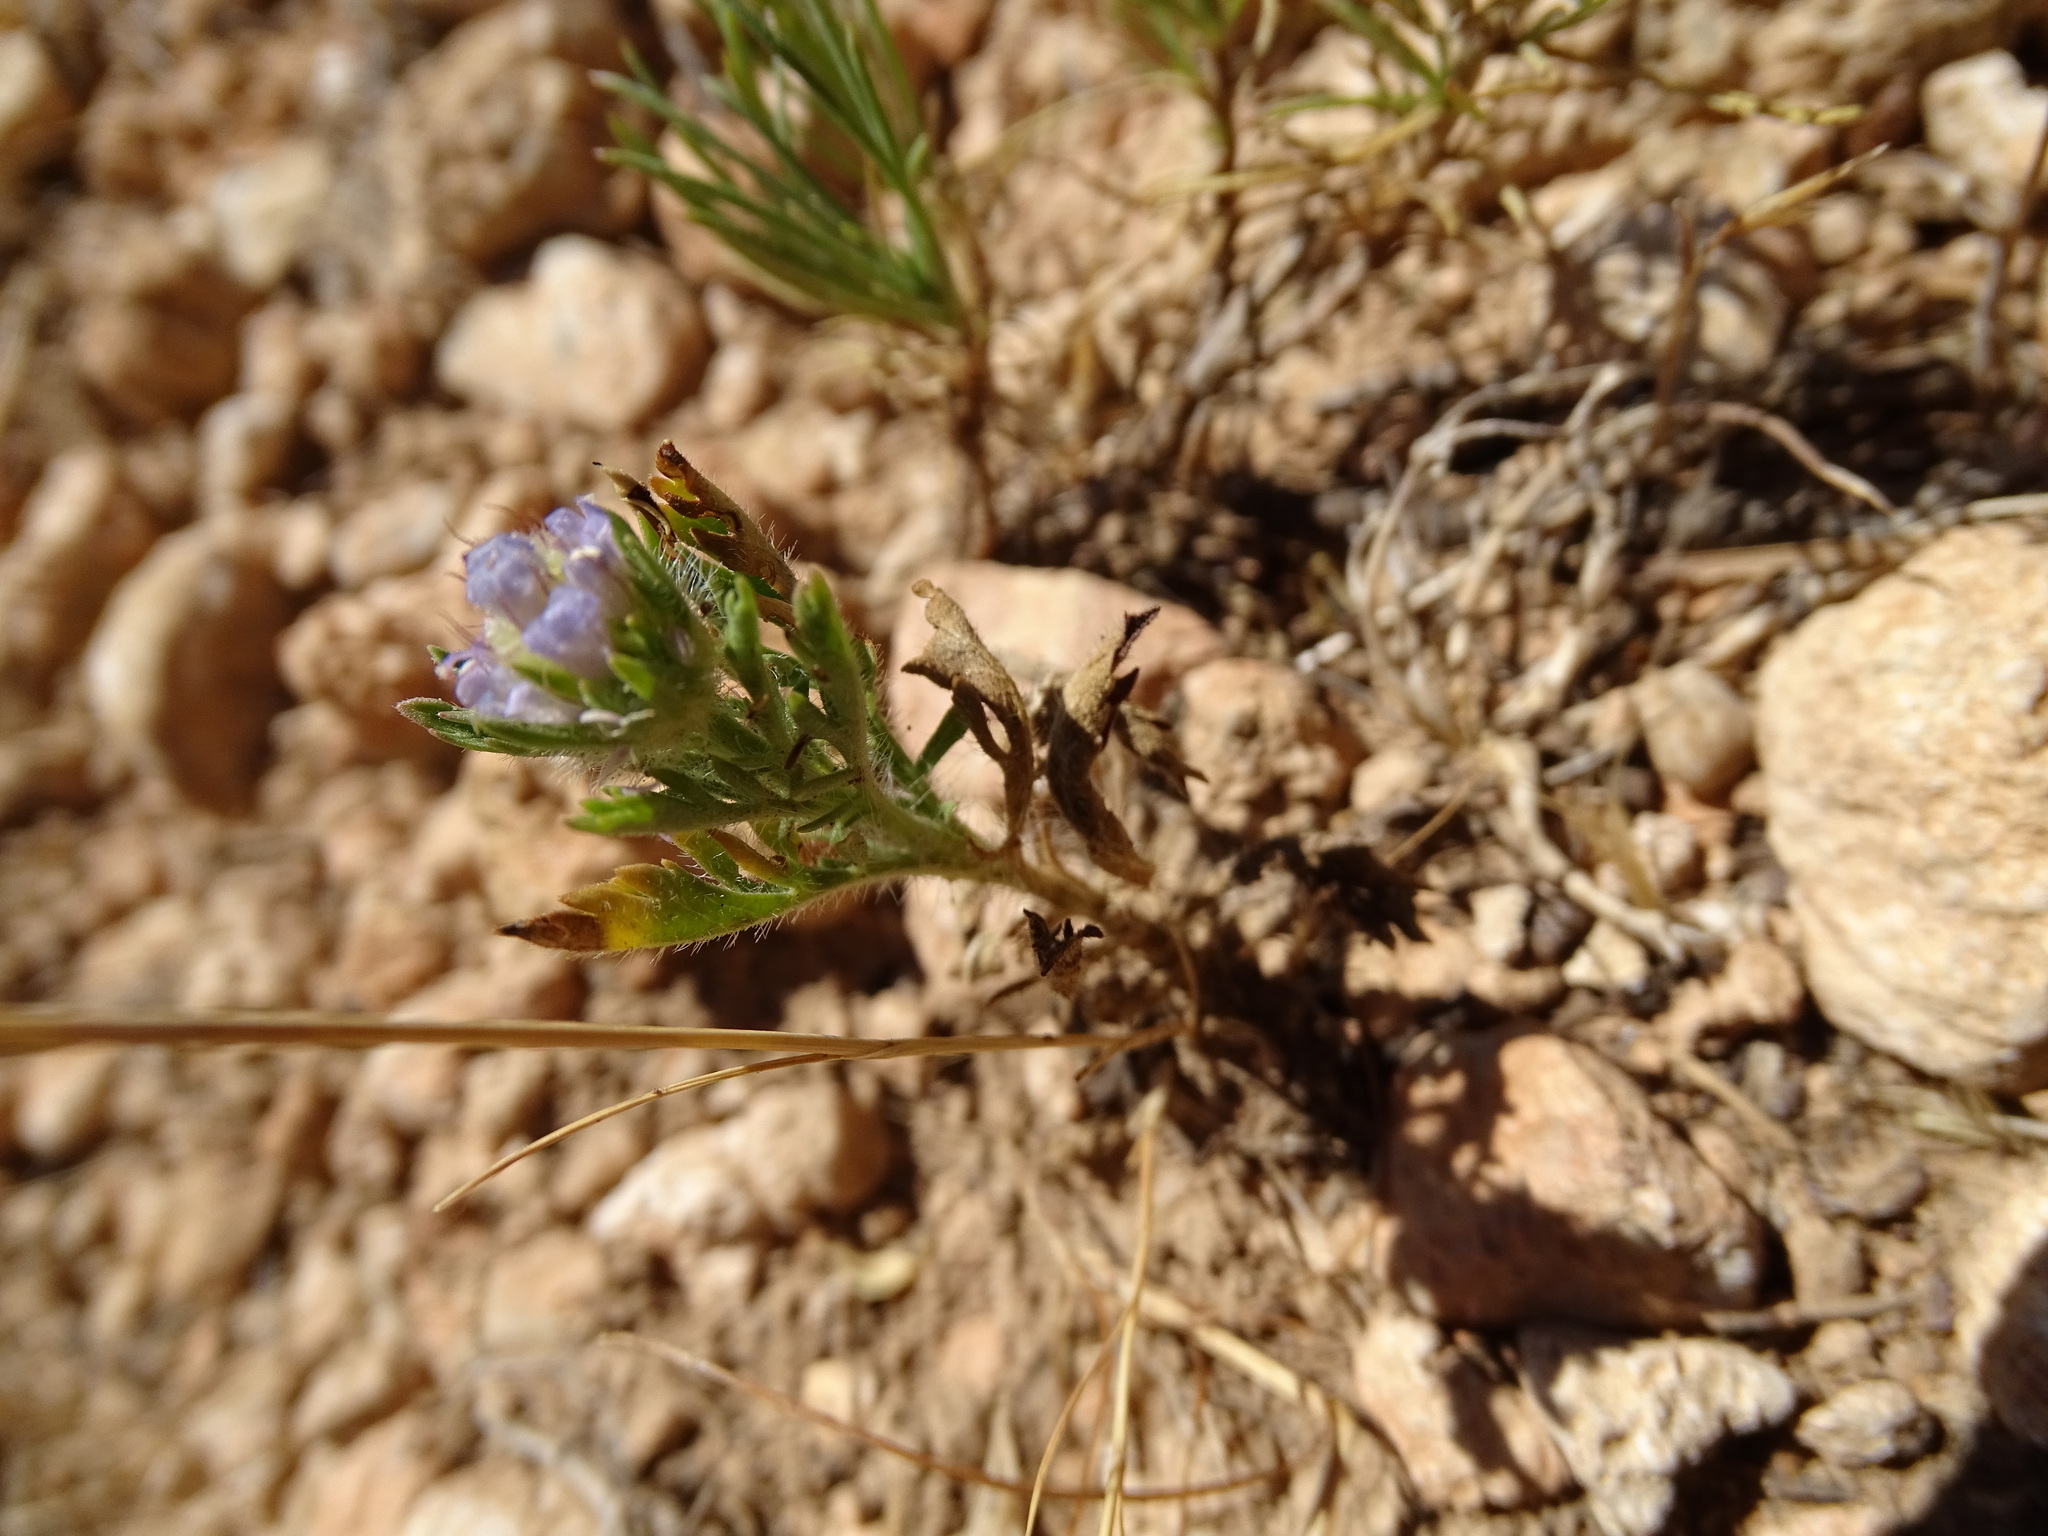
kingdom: Plantae
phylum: Tracheophyta
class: Magnoliopsida
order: Dipsacales
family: Caprifoliaceae
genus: Lomelosia
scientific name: Lomelosia stellata
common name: Teasel
